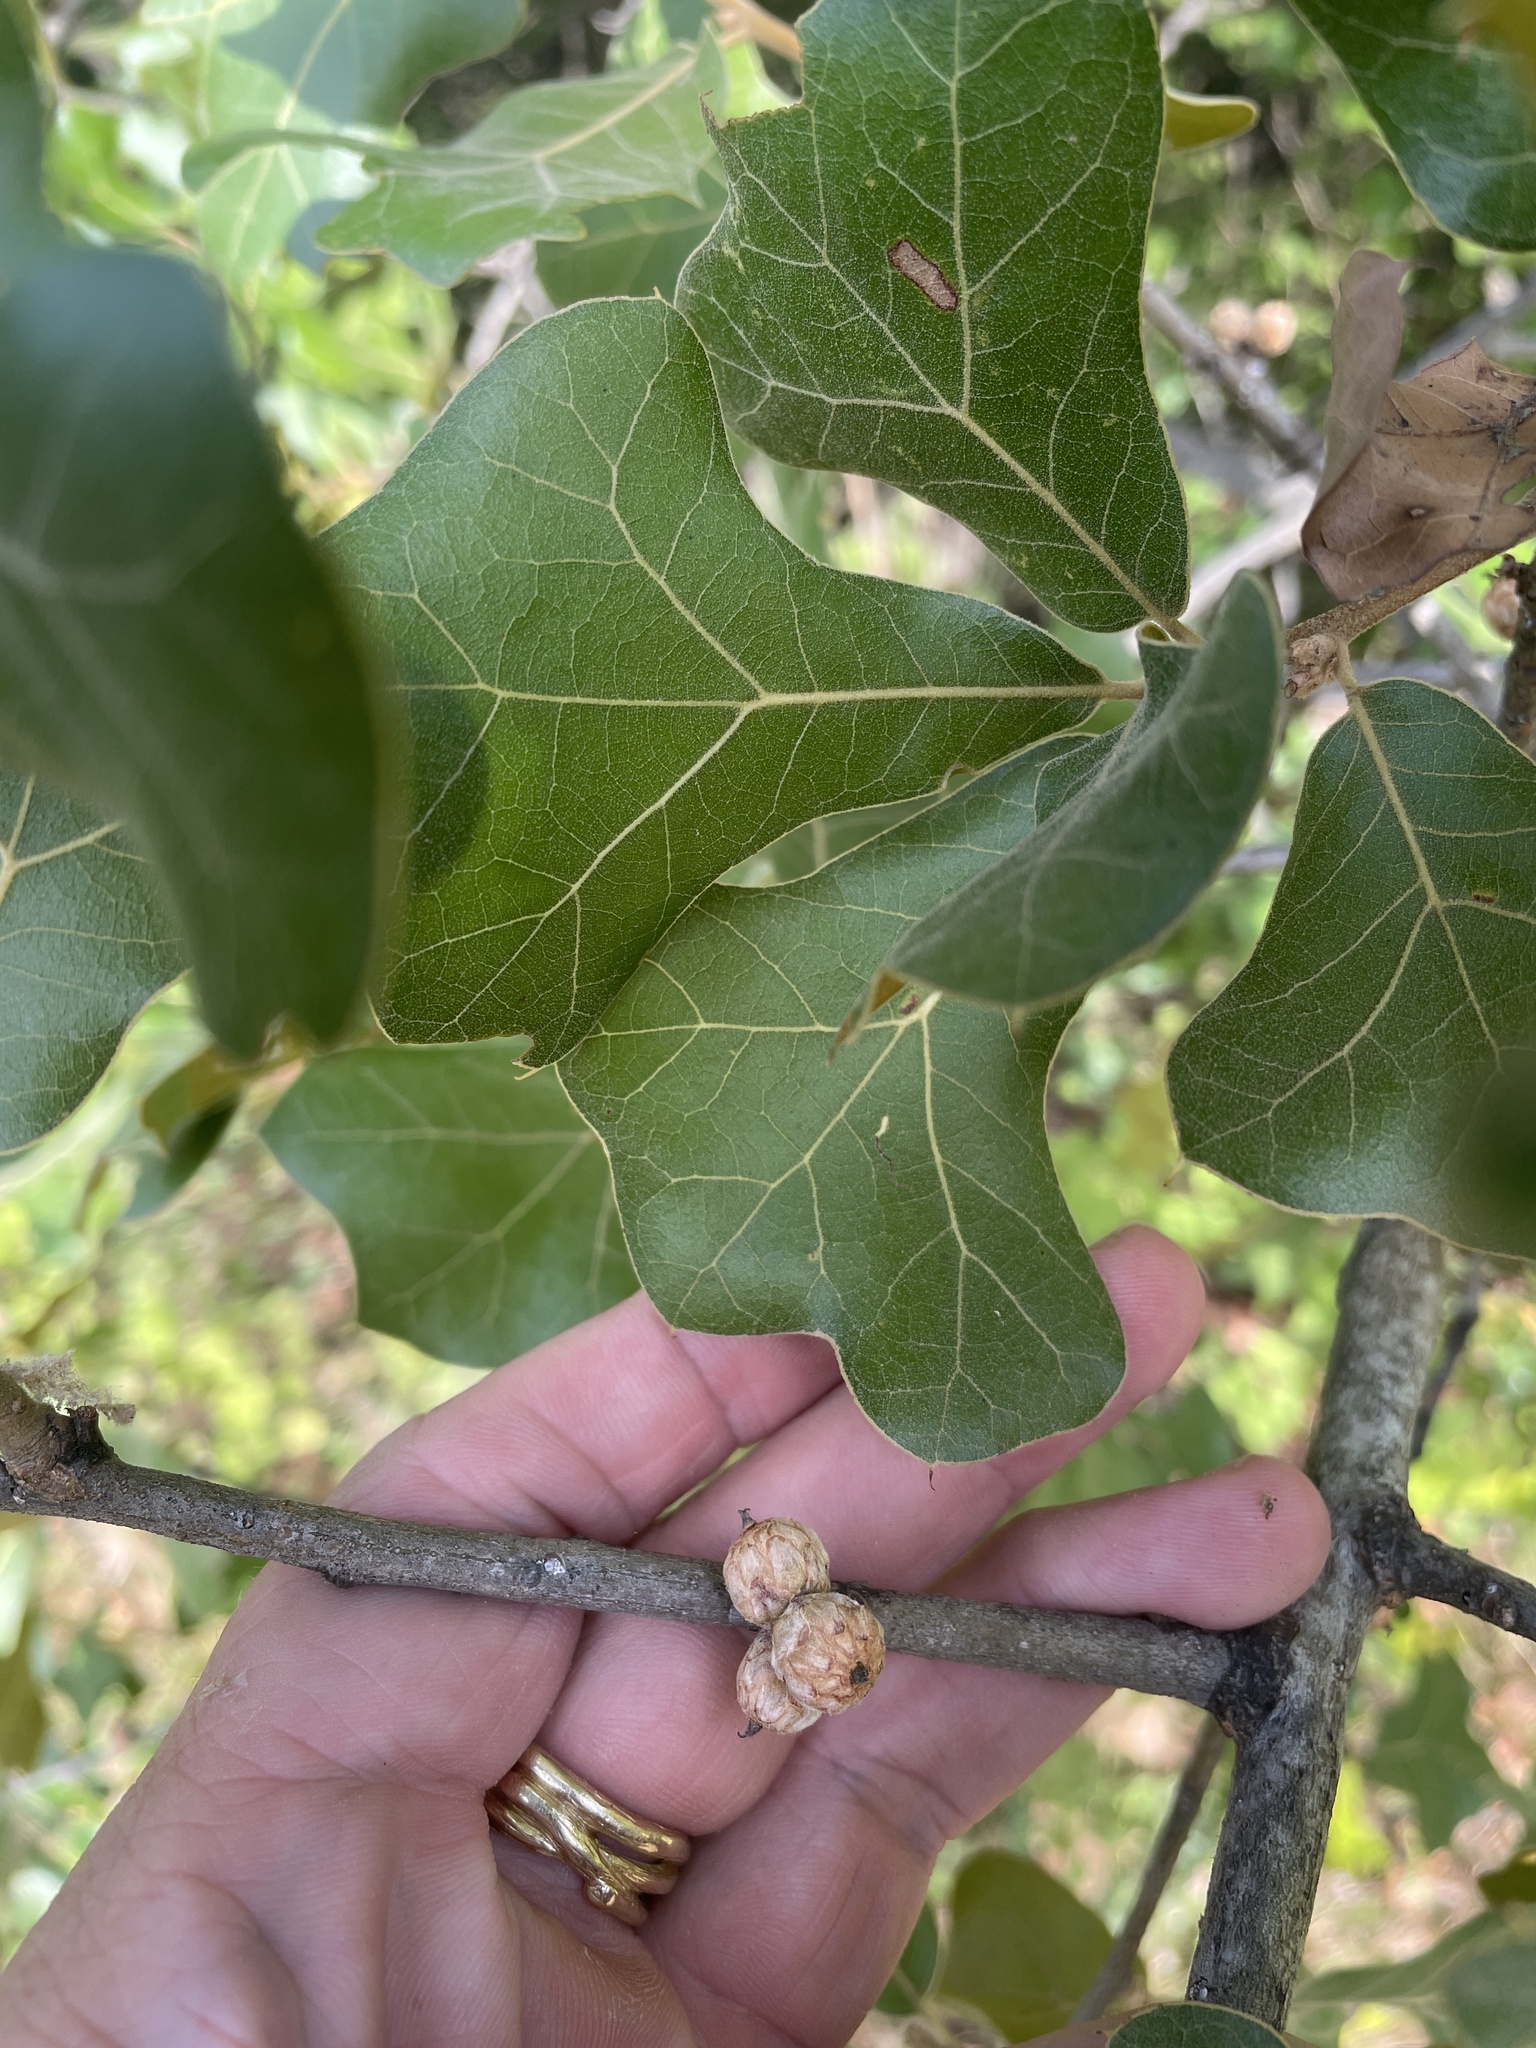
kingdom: Plantae
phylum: Tracheophyta
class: Magnoliopsida
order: Fagales
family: Fagaceae
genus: Quercus
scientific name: Quercus marilandica
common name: Blackjack oak
